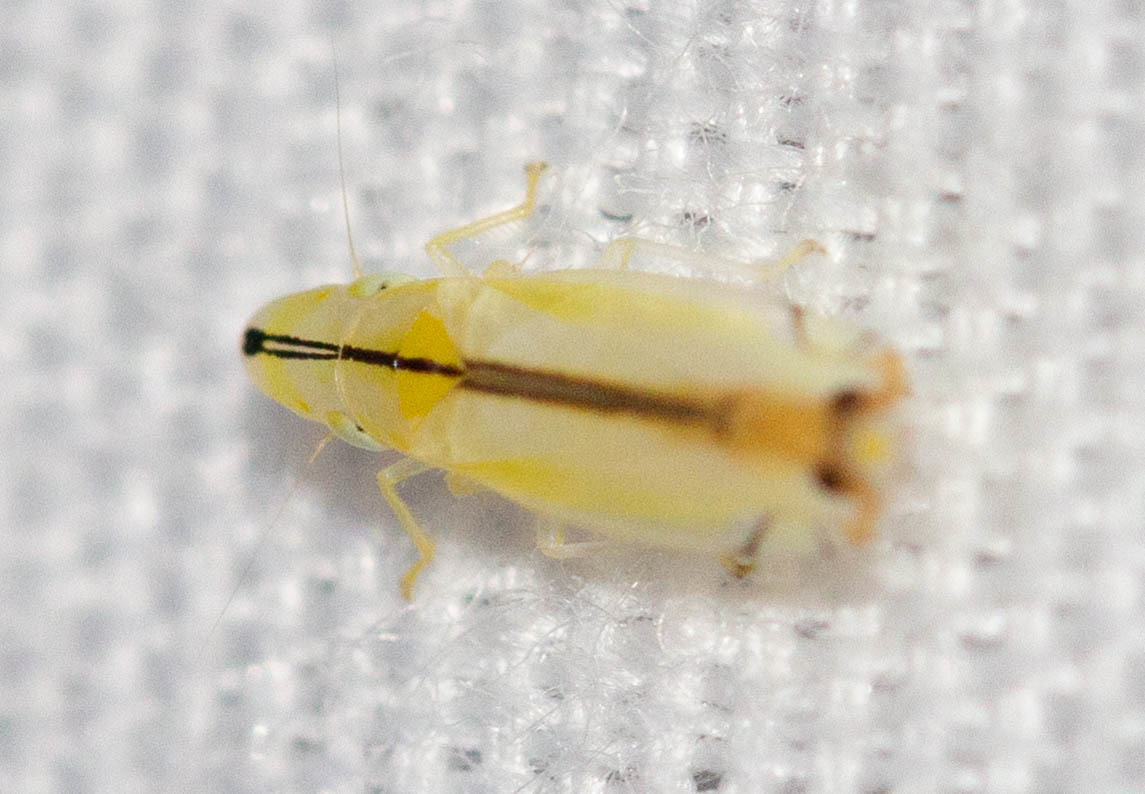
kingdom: Animalia
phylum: Arthropoda
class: Insecta
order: Hemiptera
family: Cicadellidae
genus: Sophonia
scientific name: Sophonia orientalis
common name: Two-spotted leafhopper
